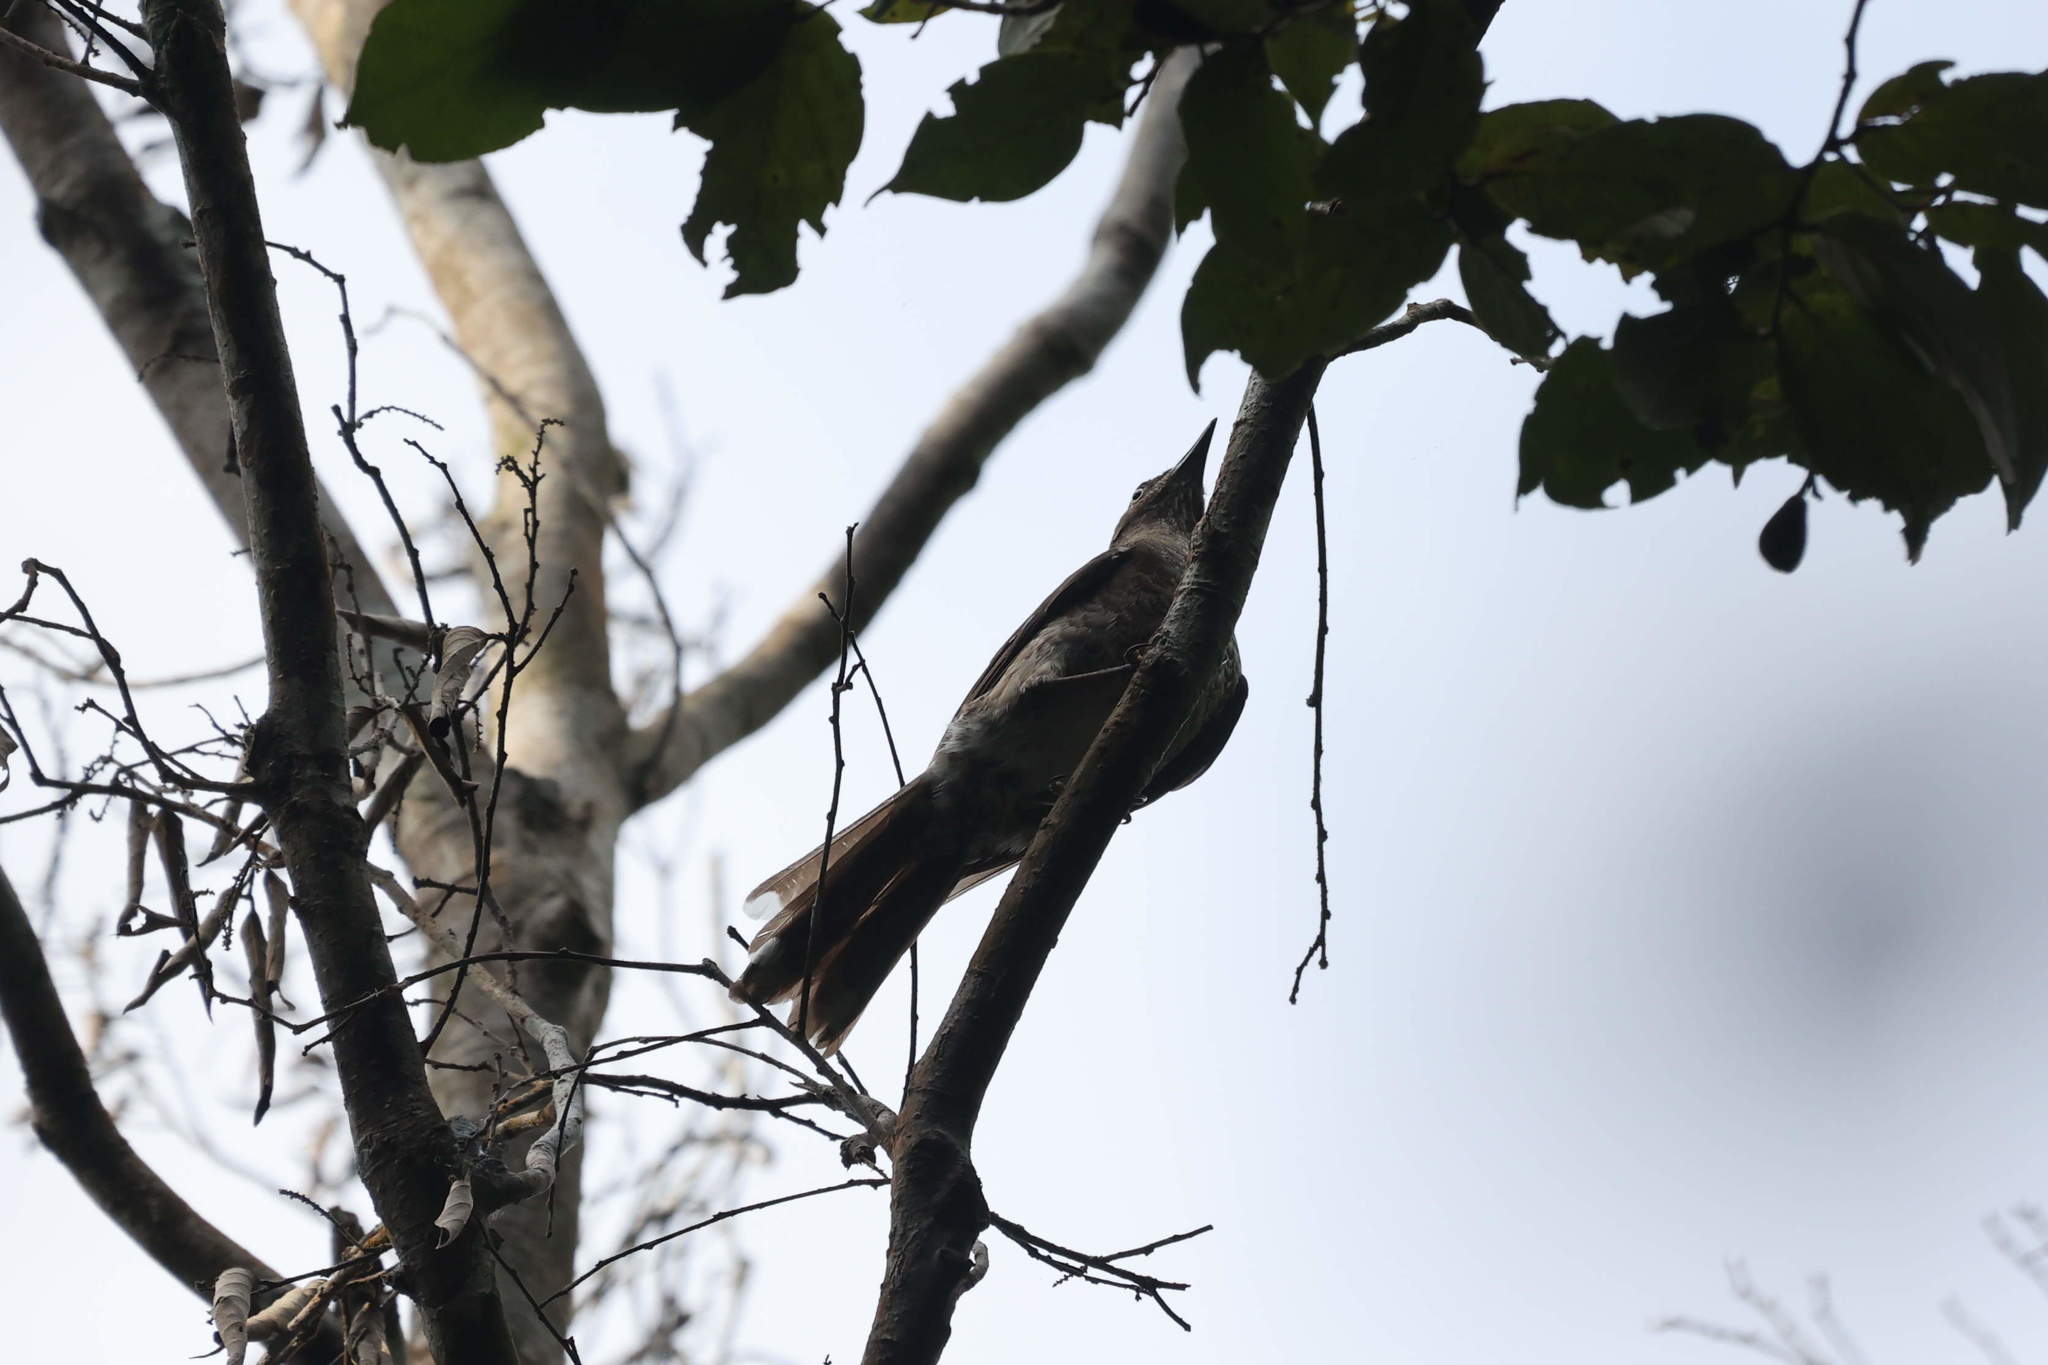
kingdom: Animalia
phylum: Chordata
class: Aves
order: Passeriformes
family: Mimidae
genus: Allenia
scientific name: Allenia fusca
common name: Scaly-breasted thrasher
